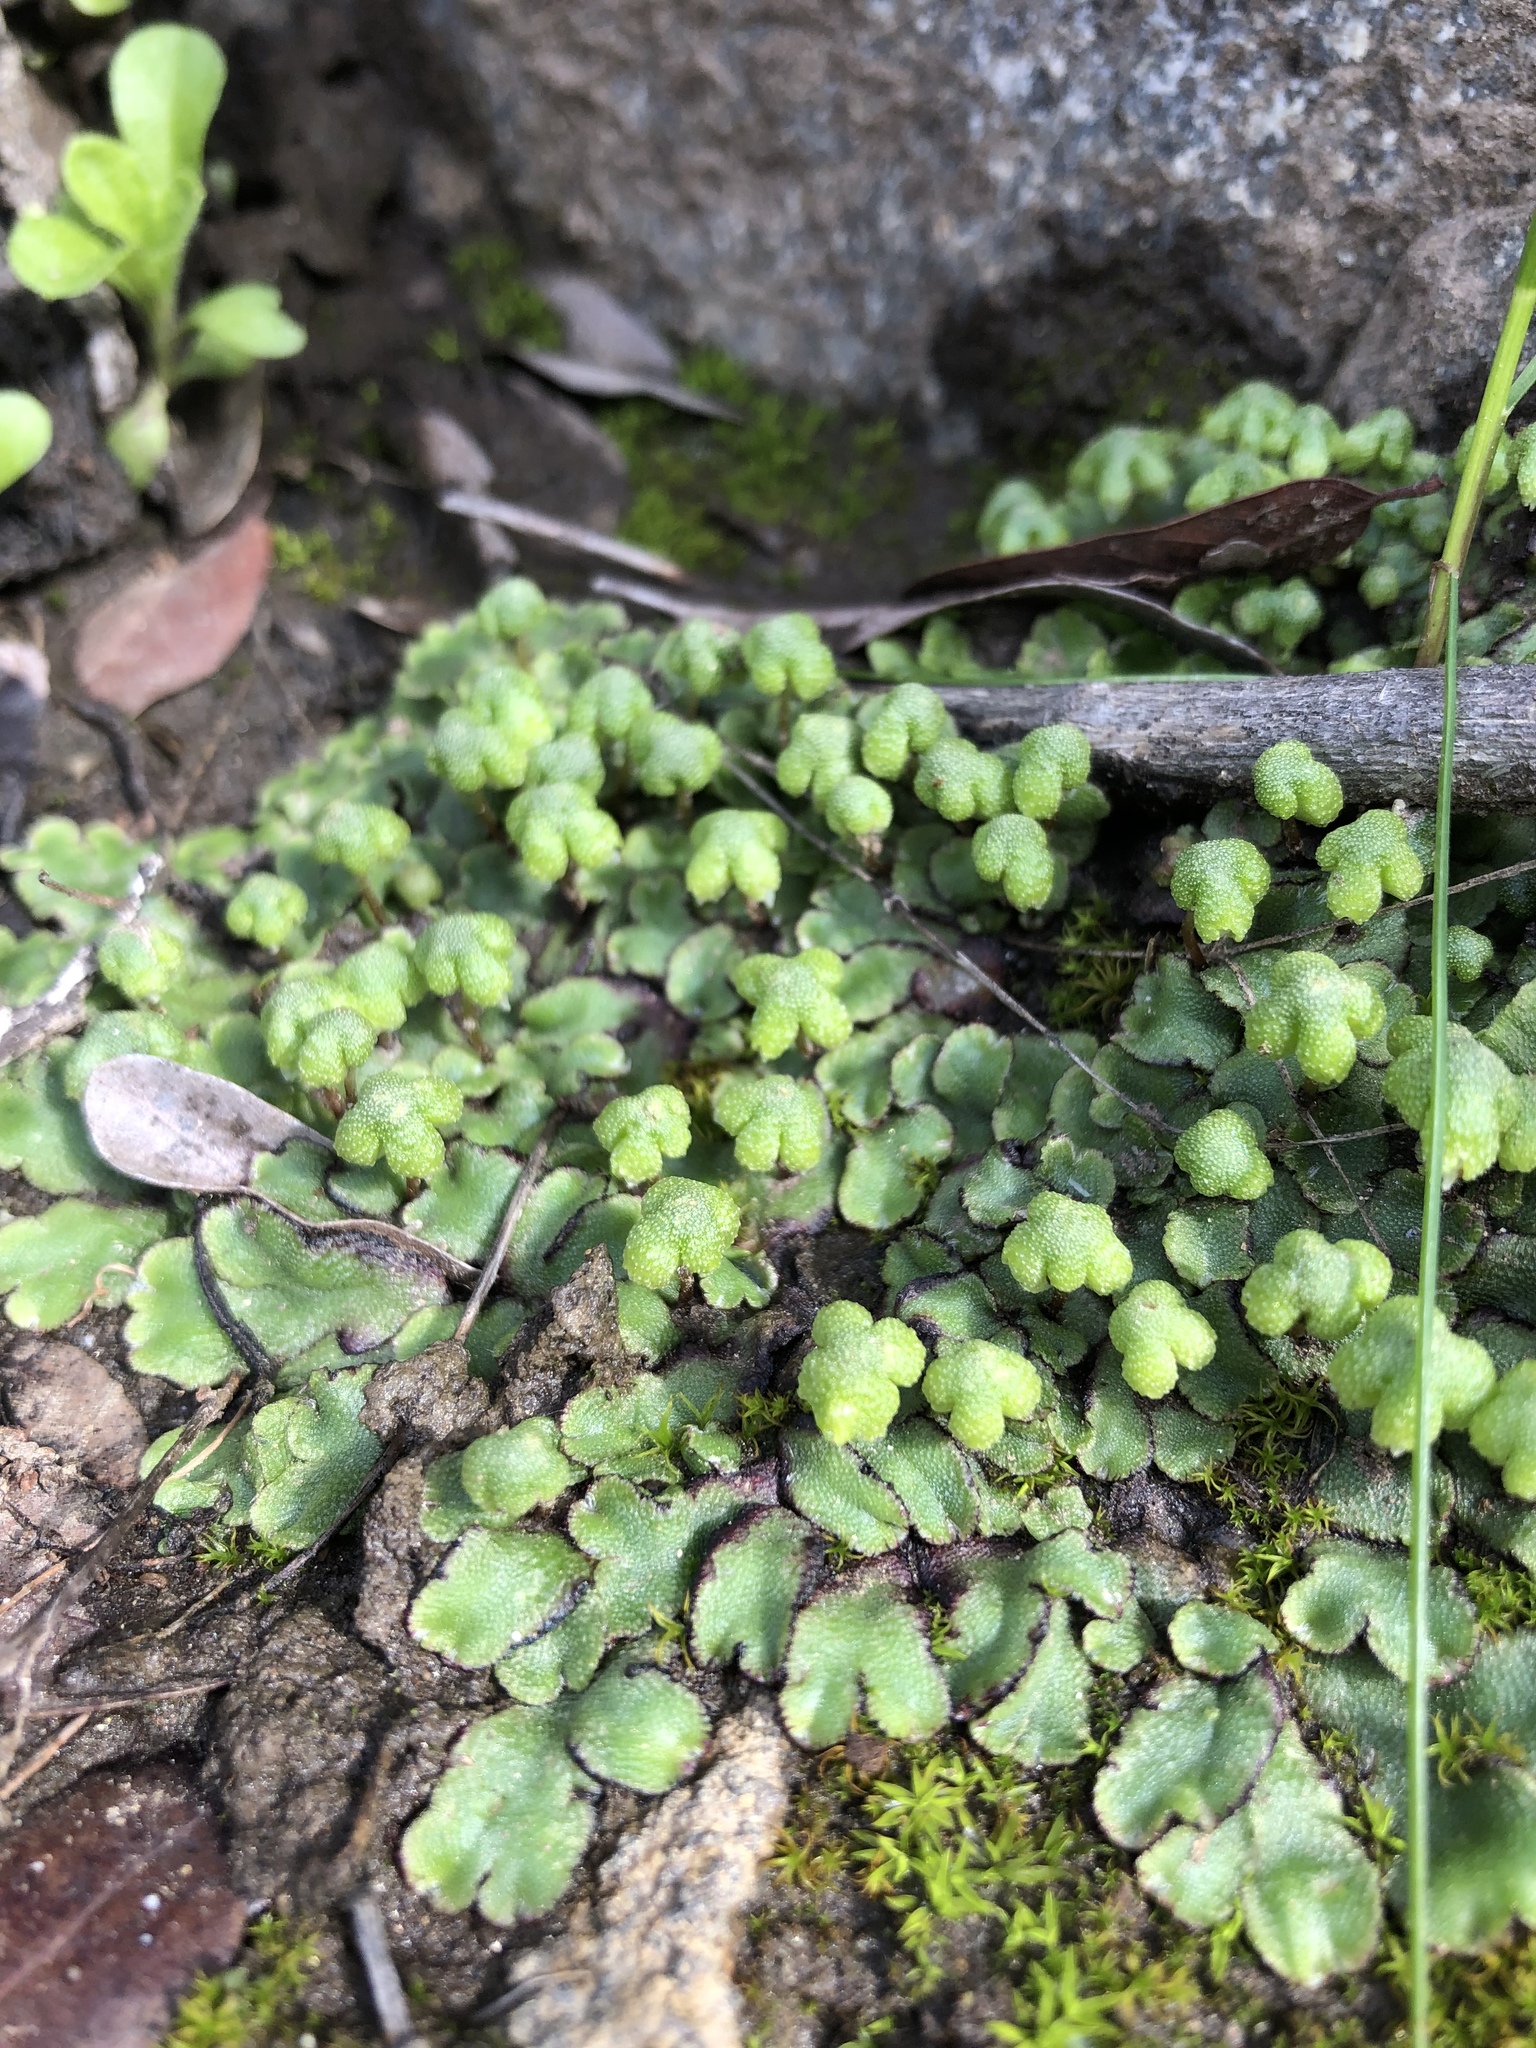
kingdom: Plantae
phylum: Marchantiophyta
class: Marchantiopsida
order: Marchantiales
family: Aytoniaceae
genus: Asterella
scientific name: Asterella californica
